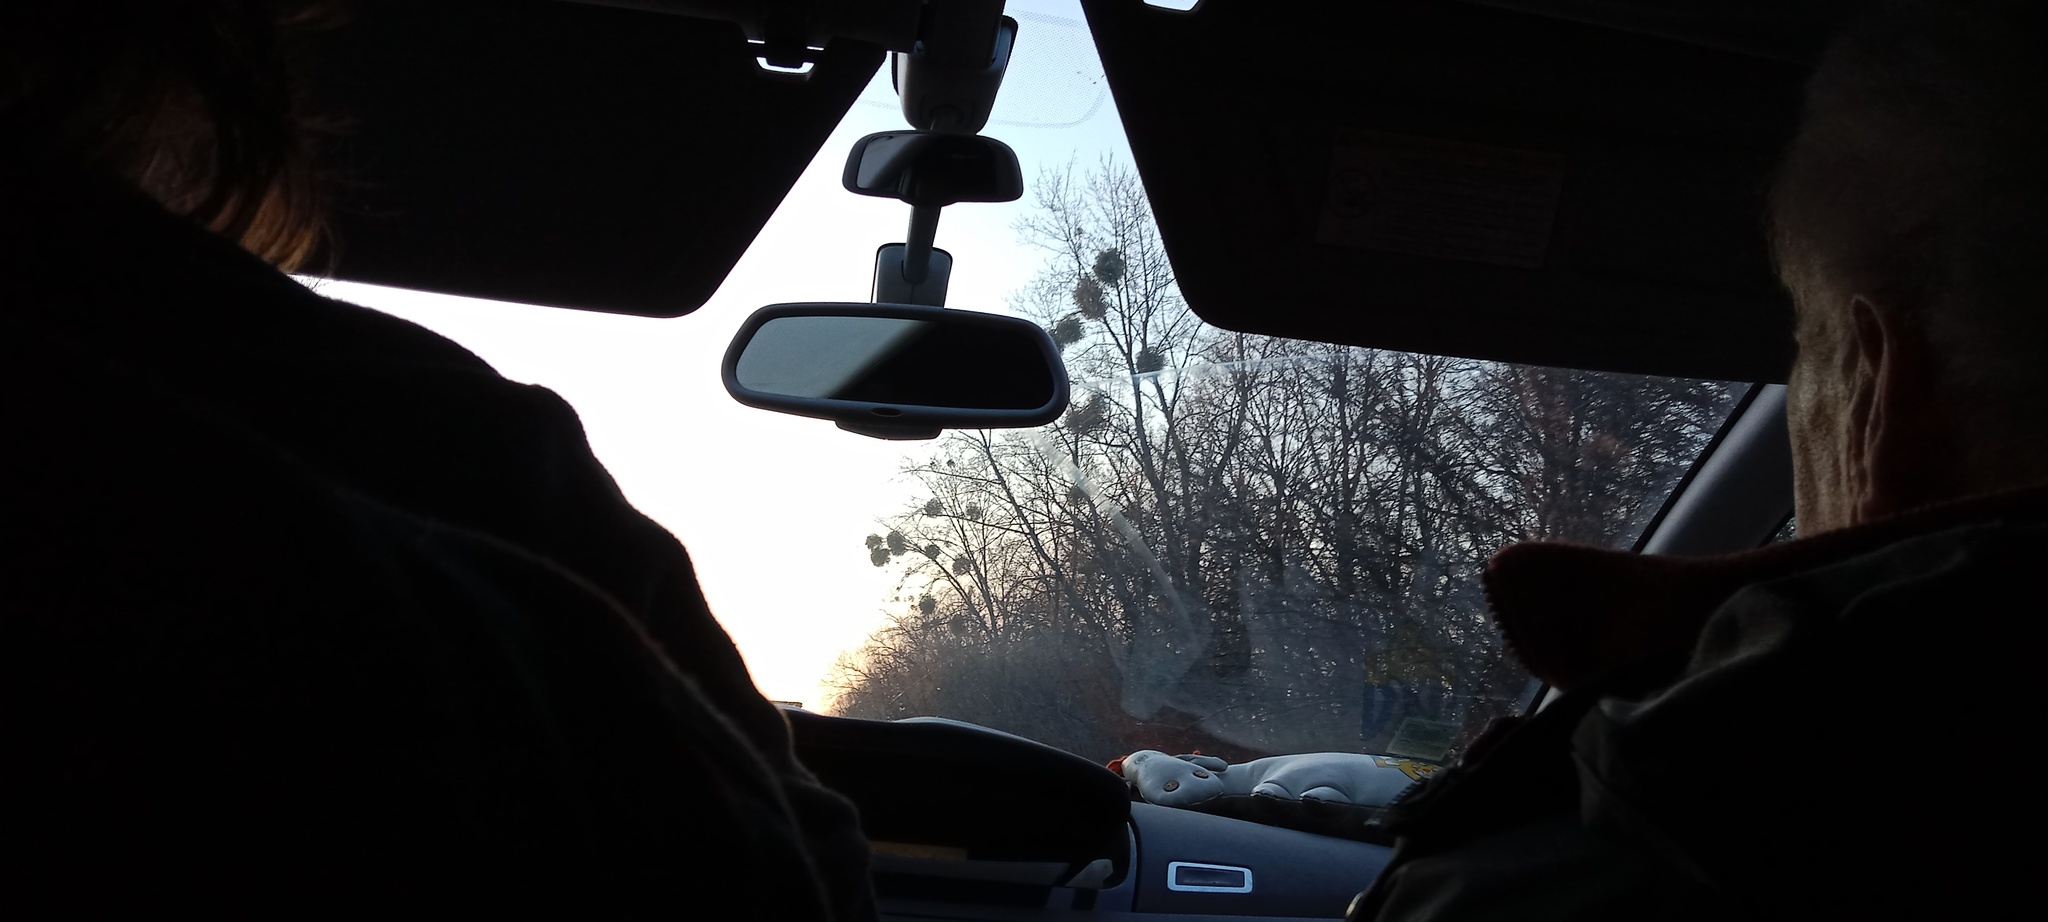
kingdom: Plantae
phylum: Tracheophyta
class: Magnoliopsida
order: Santalales
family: Viscaceae
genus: Viscum
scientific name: Viscum album
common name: Mistletoe
